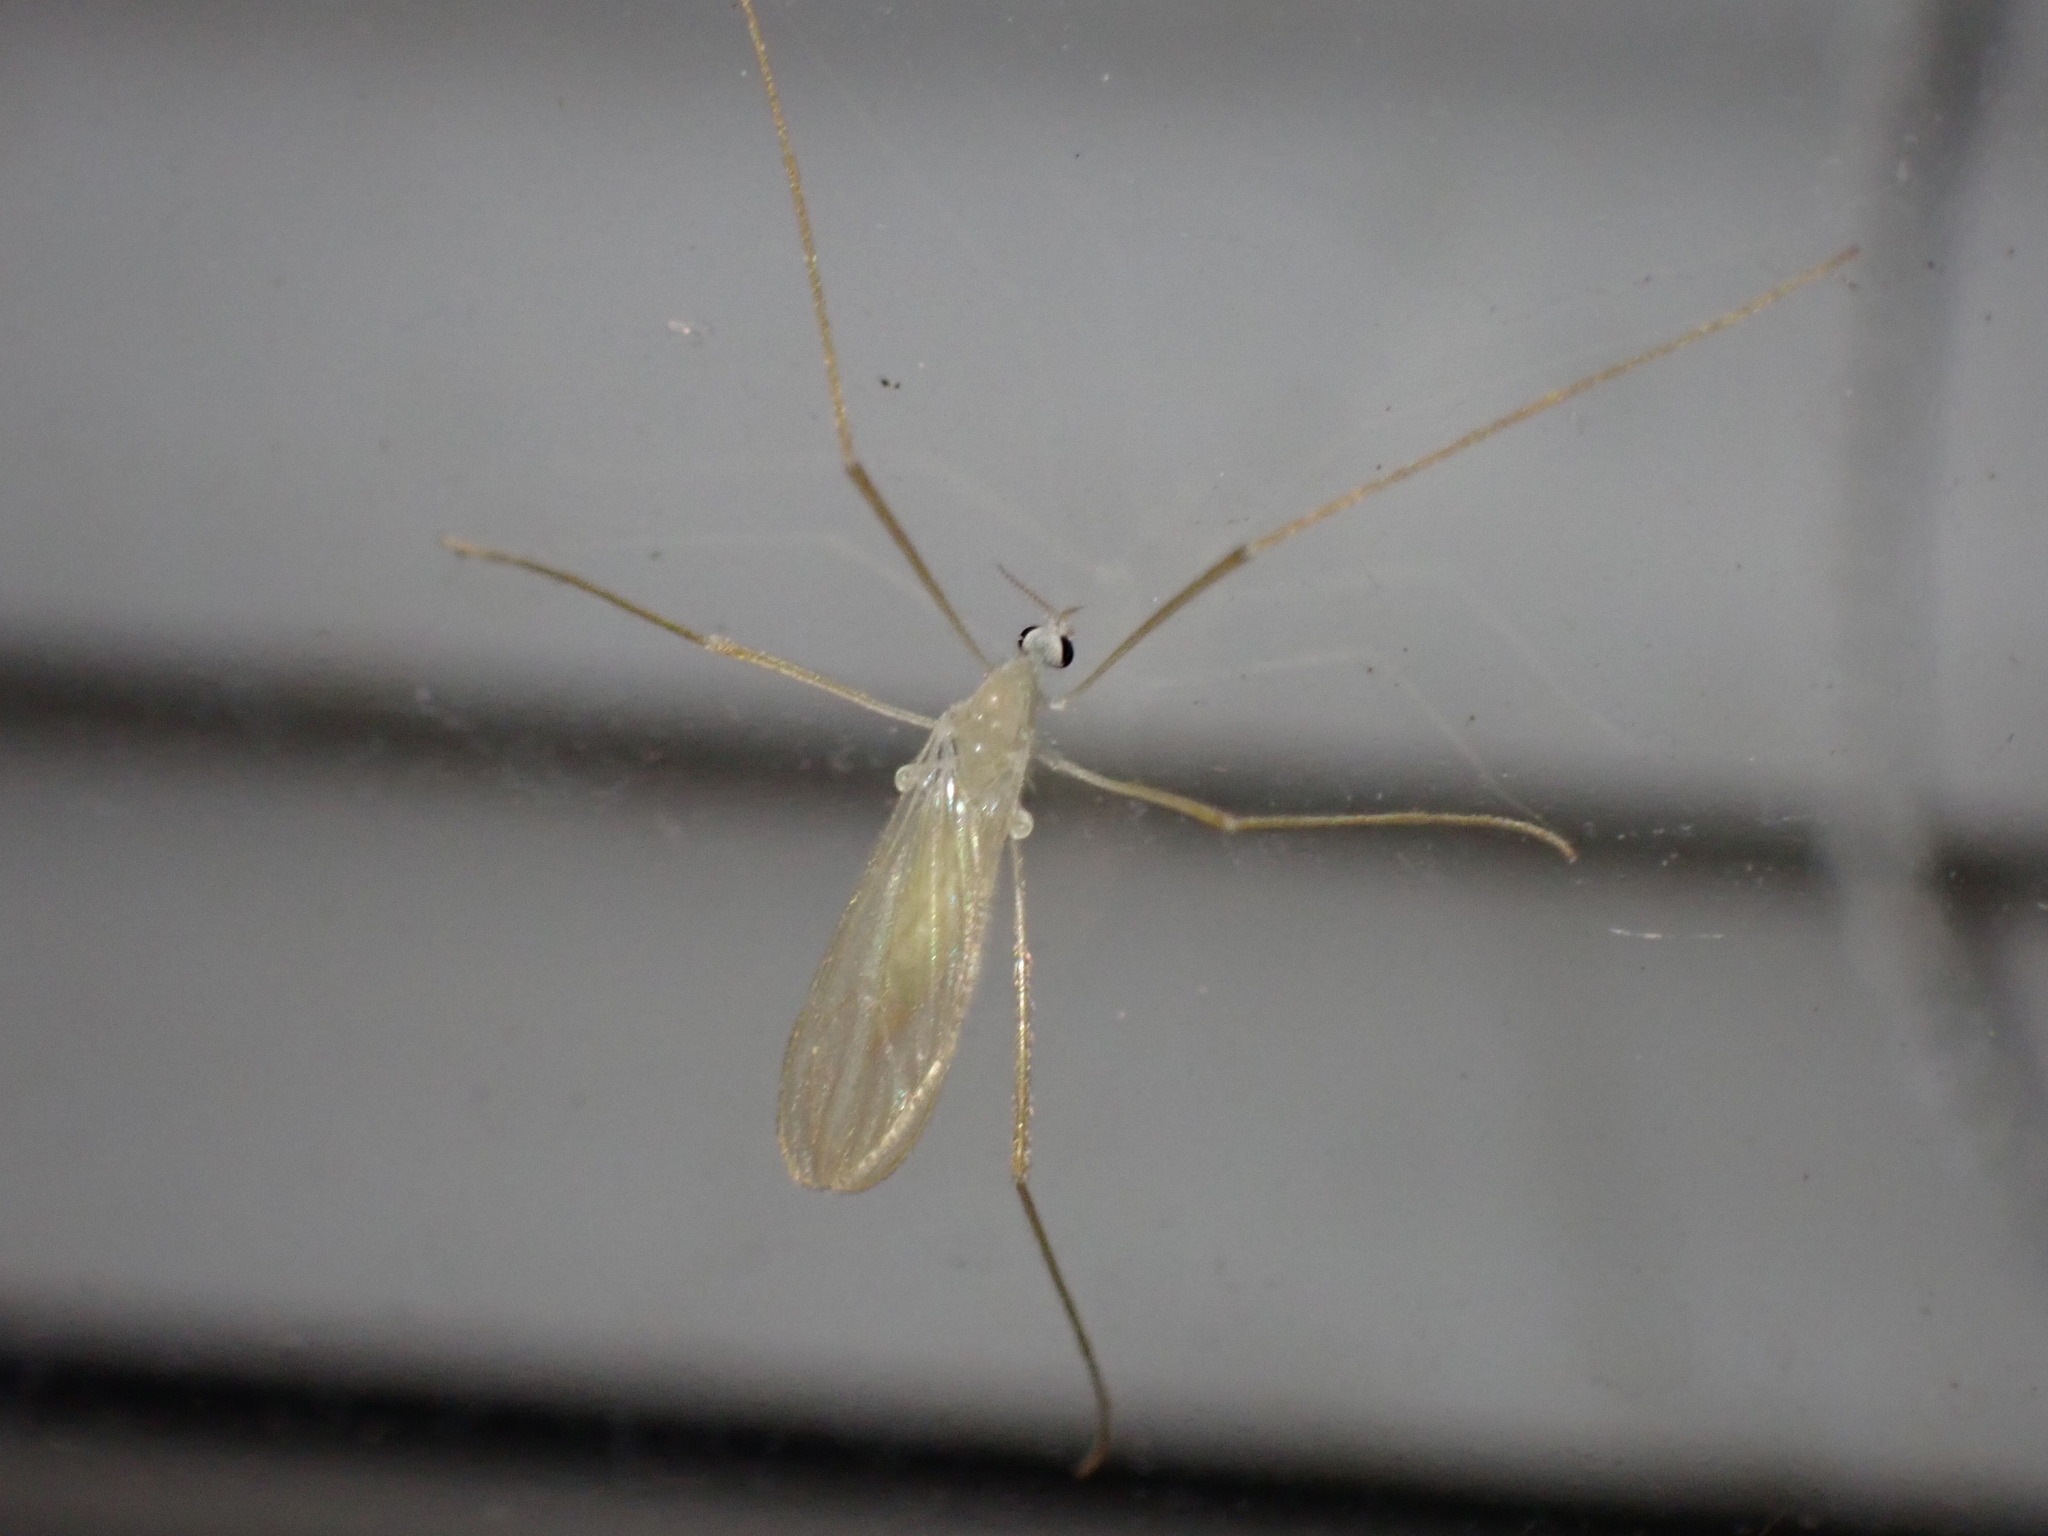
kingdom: Animalia
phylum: Arthropoda
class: Insecta
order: Diptera
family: Limoniidae
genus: Erioptera
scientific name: Erioptera
